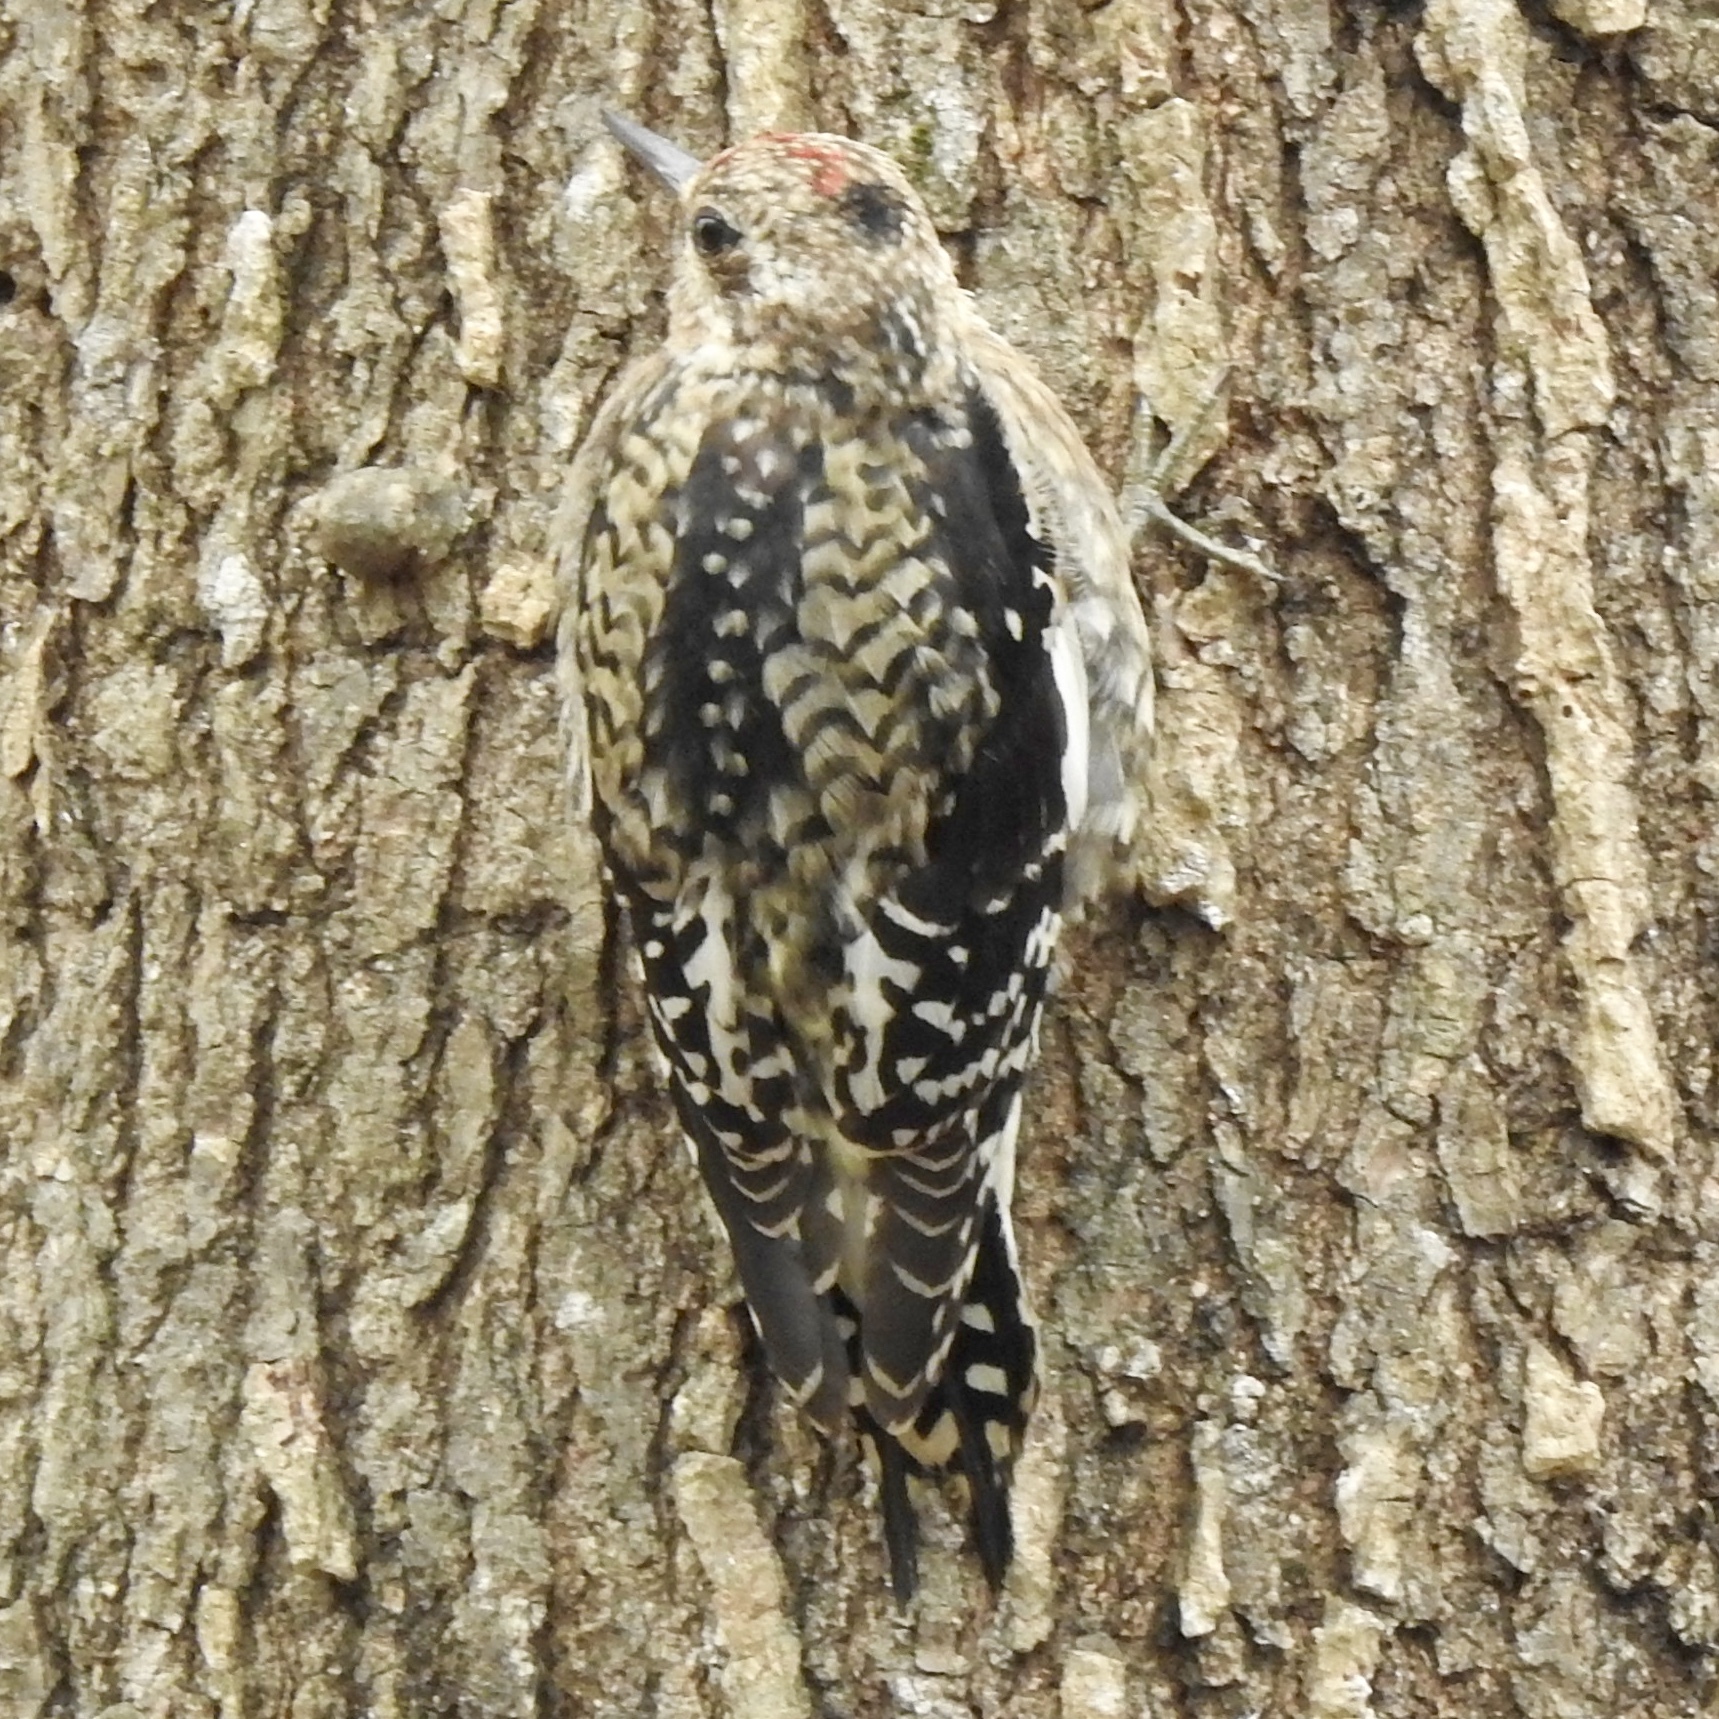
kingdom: Animalia
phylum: Chordata
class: Aves
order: Piciformes
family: Picidae
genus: Sphyrapicus
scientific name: Sphyrapicus varius
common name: Yellow-bellied sapsucker
